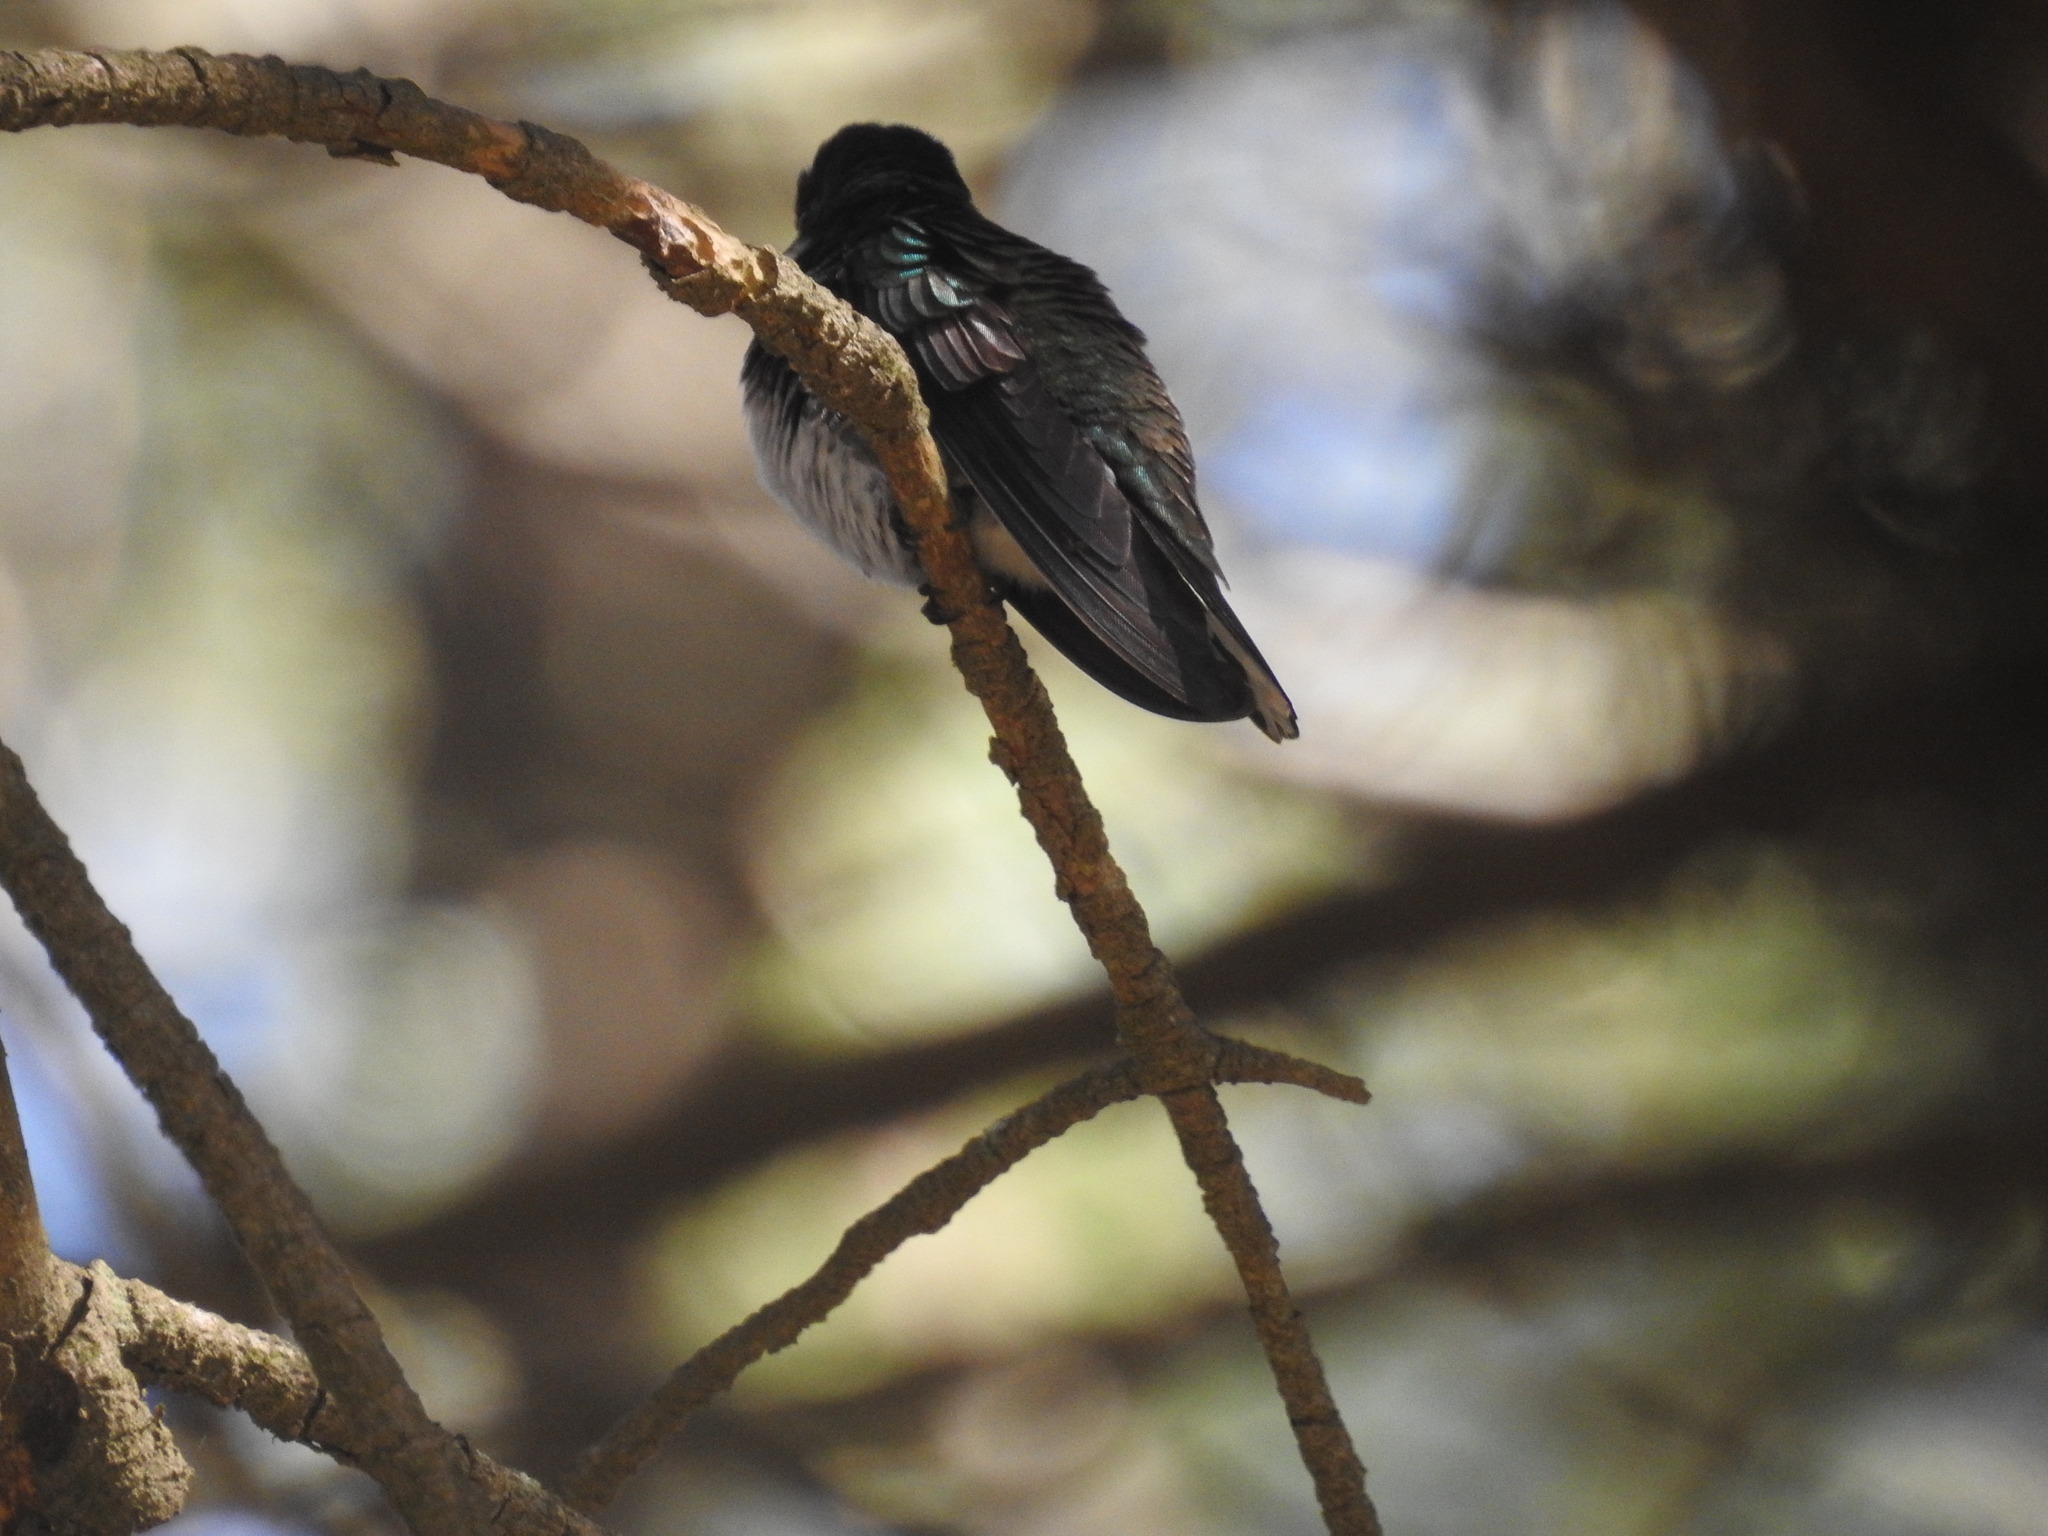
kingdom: Animalia
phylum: Chordata
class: Aves
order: Apodiformes
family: Trochilidae
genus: Leucochloris
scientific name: Leucochloris albicollis
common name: White-throated hummingbird
